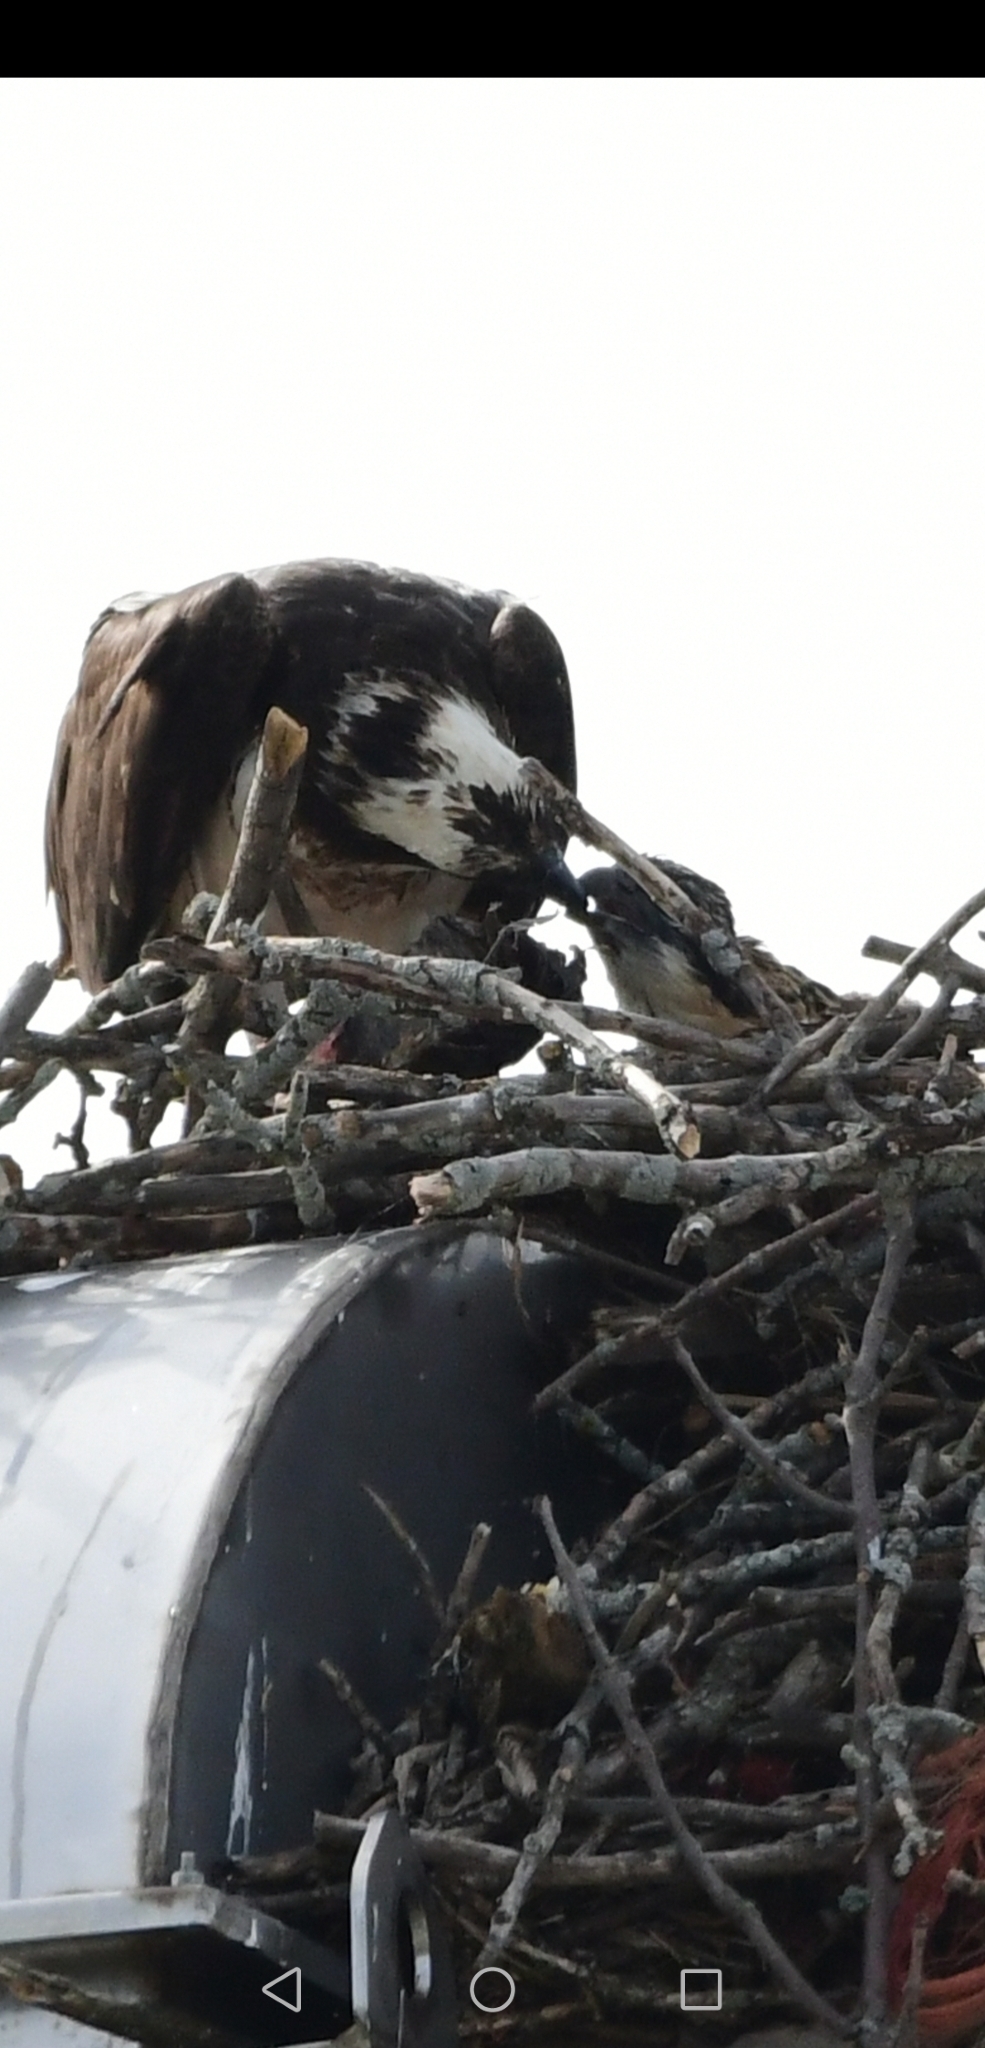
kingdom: Animalia
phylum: Chordata
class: Aves
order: Accipitriformes
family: Pandionidae
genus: Pandion
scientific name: Pandion haliaetus
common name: Osprey
